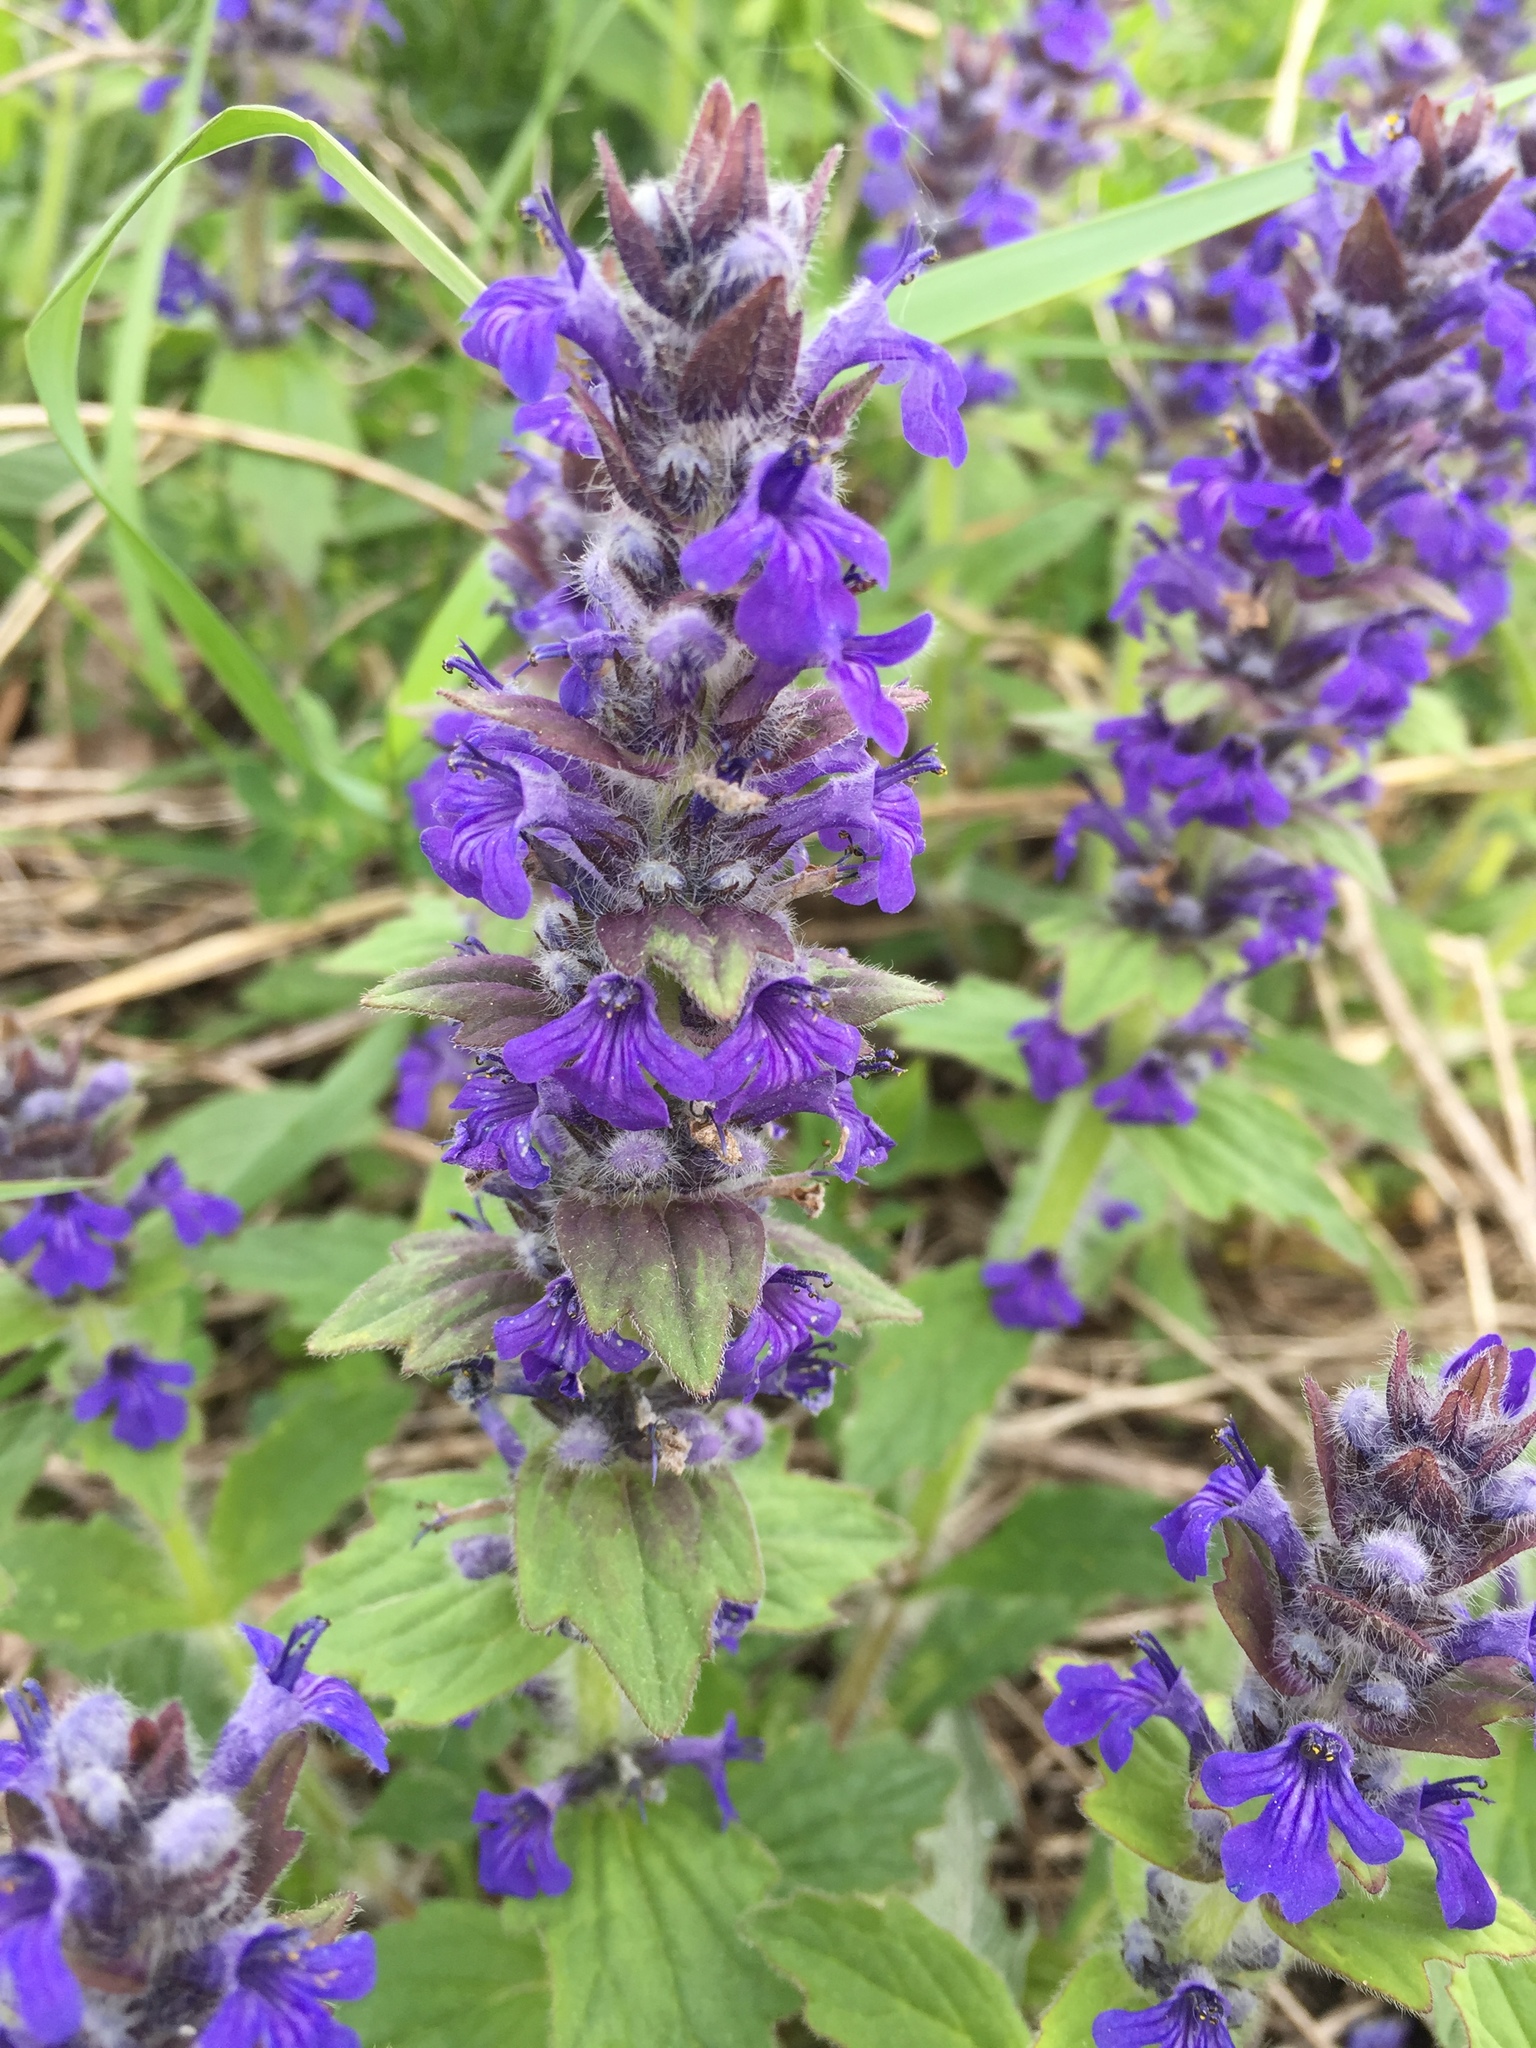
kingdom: Plantae
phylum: Tracheophyta
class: Magnoliopsida
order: Lamiales
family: Lamiaceae
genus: Ajuga
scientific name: Ajuga genevensis
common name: Blue bugle
